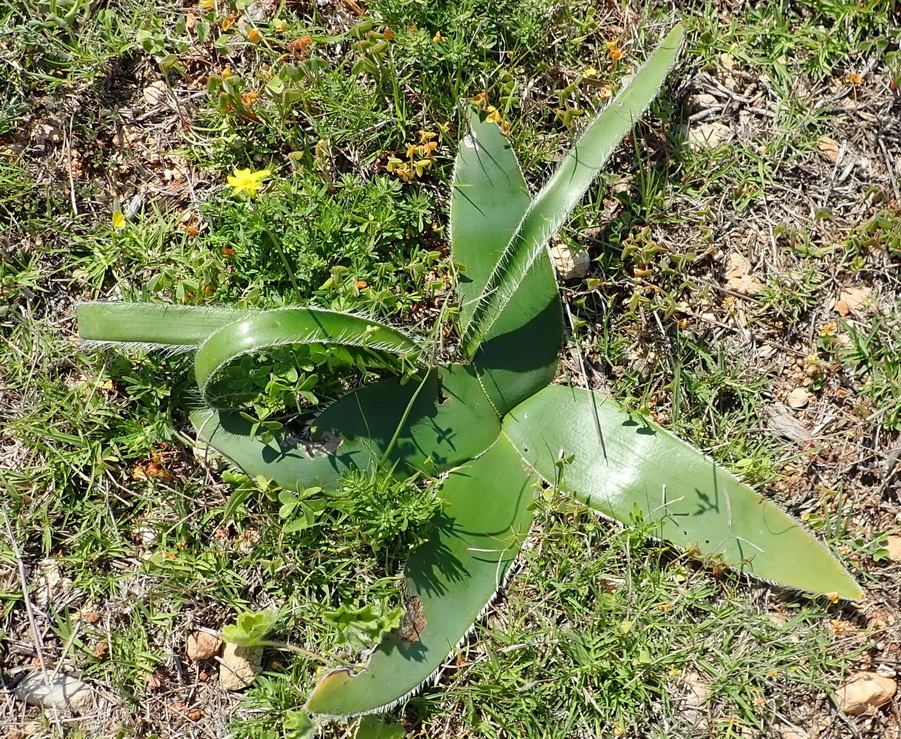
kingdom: Plantae
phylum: Tracheophyta
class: Liliopsida
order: Asparagales
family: Amaryllidaceae
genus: Crossyne
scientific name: Crossyne guttata
